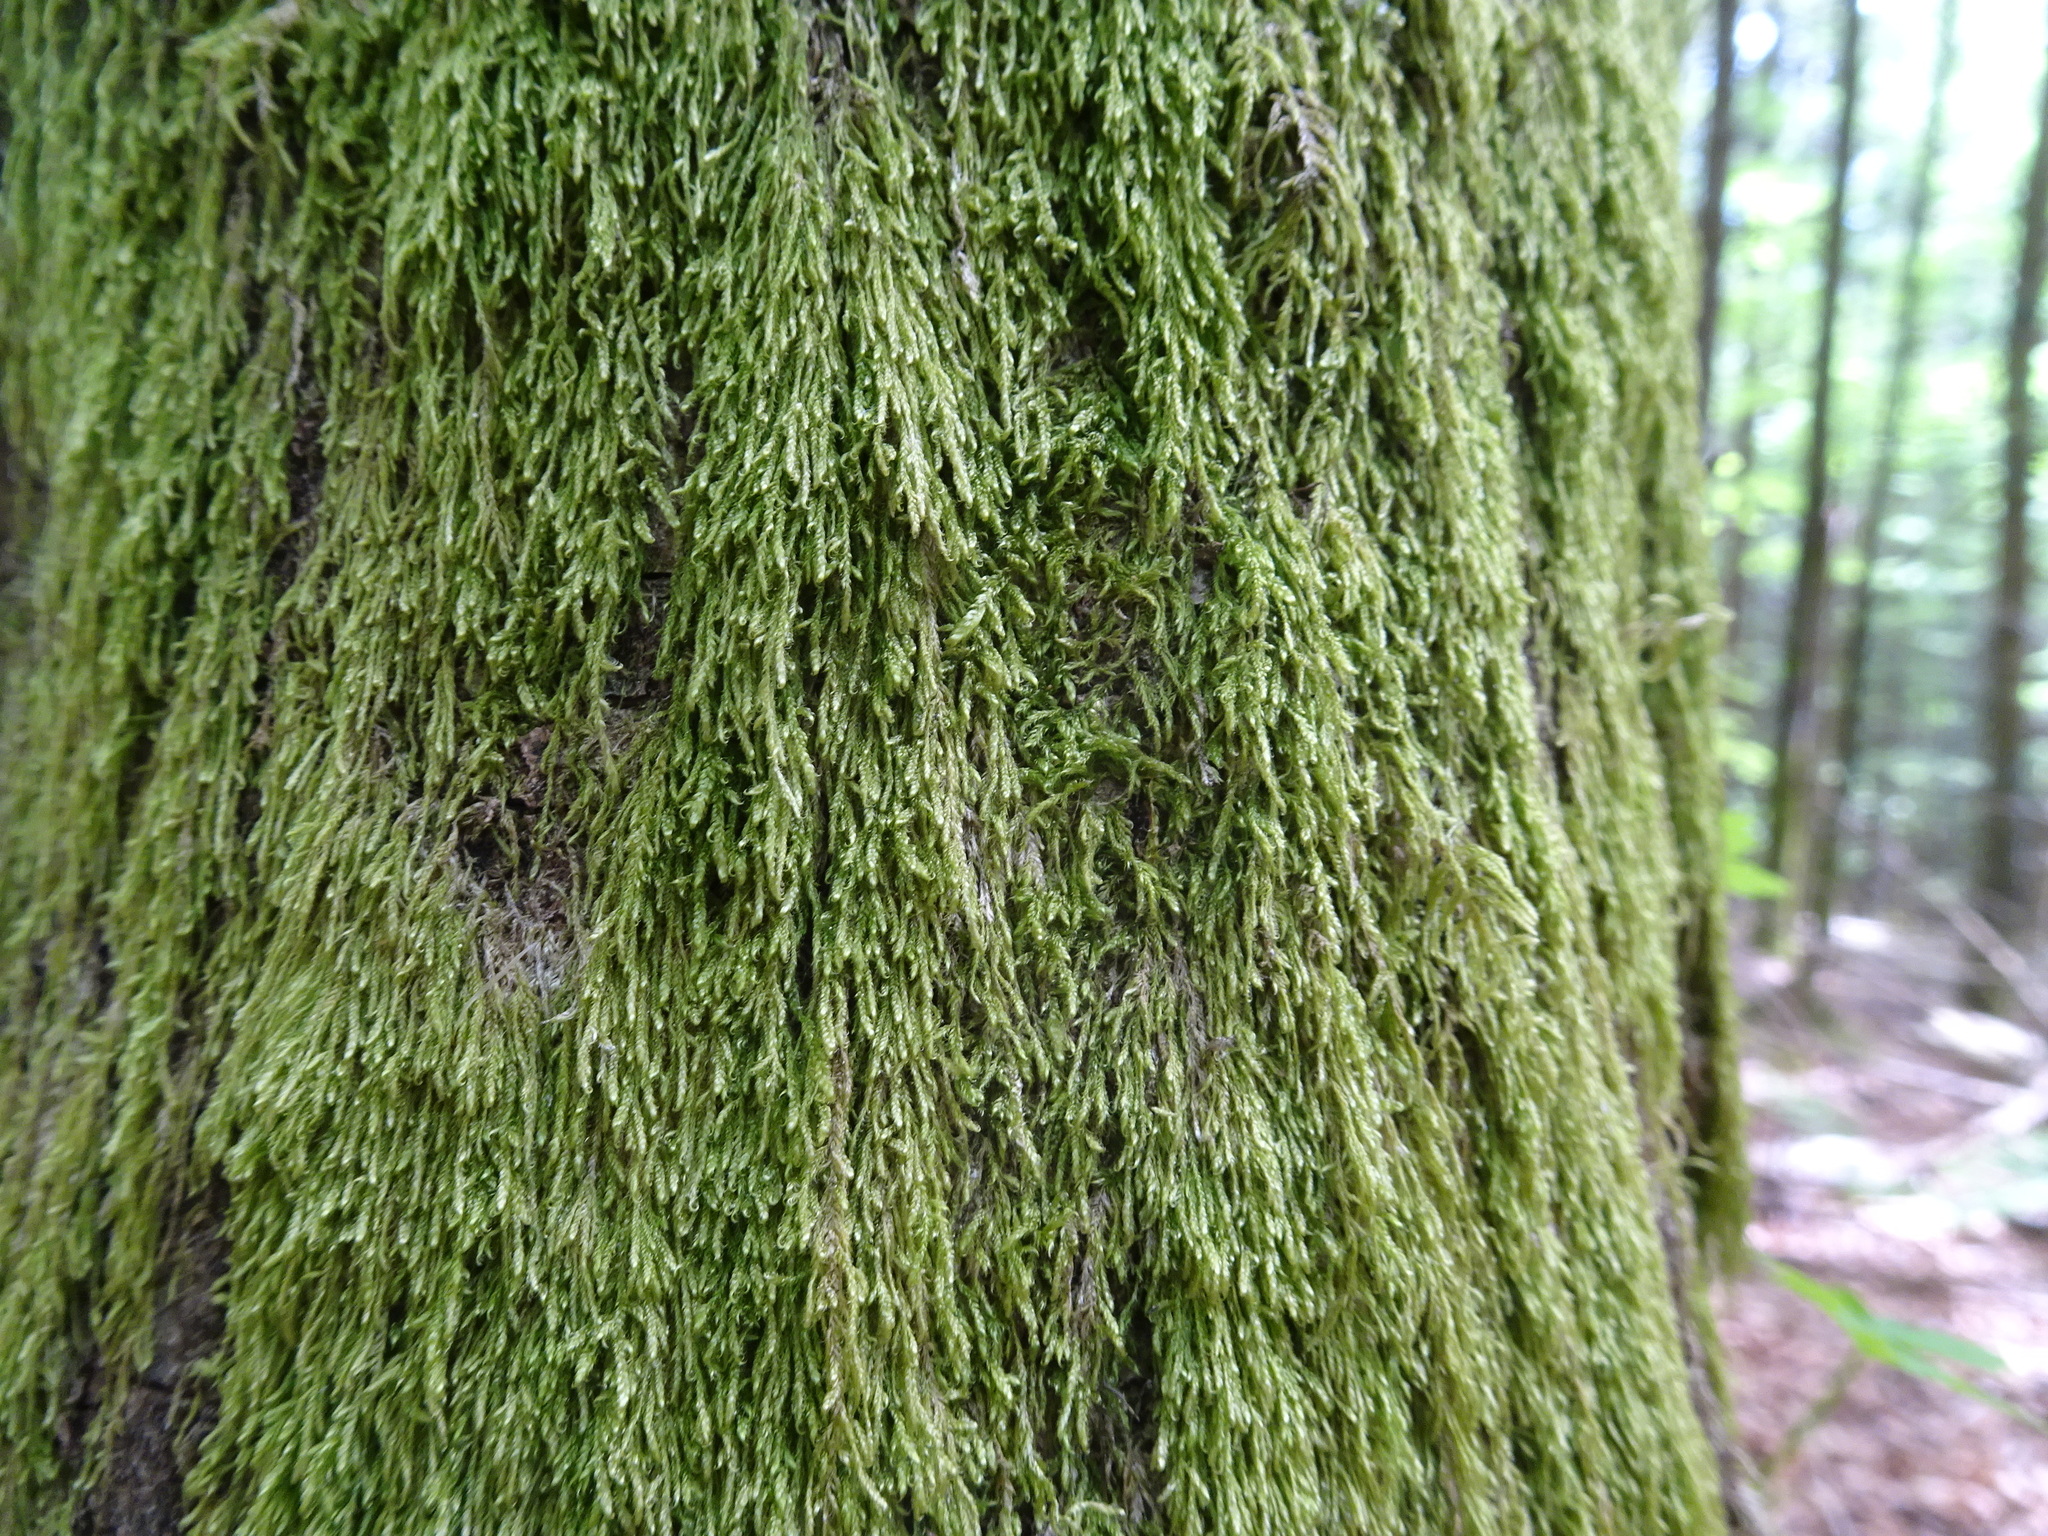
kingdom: Plantae
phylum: Bryophyta
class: Bryopsida
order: Hypnales
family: Hypnaceae
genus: Hypnum
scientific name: Hypnum cupressiforme
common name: Cypress-leaved plait-moss
